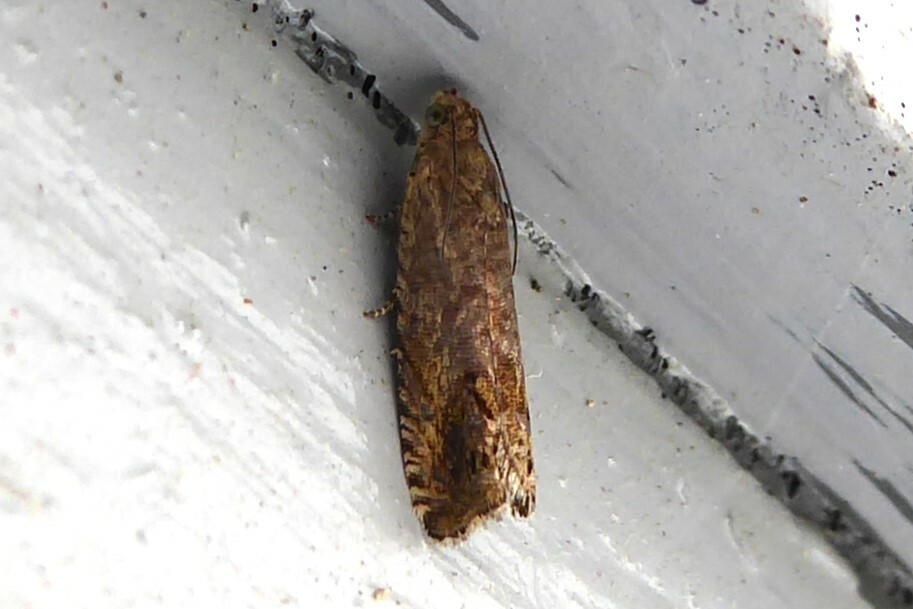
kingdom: Animalia
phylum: Arthropoda
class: Insecta
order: Lepidoptera
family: Tortricidae
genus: Cydia
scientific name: Cydia succedana
